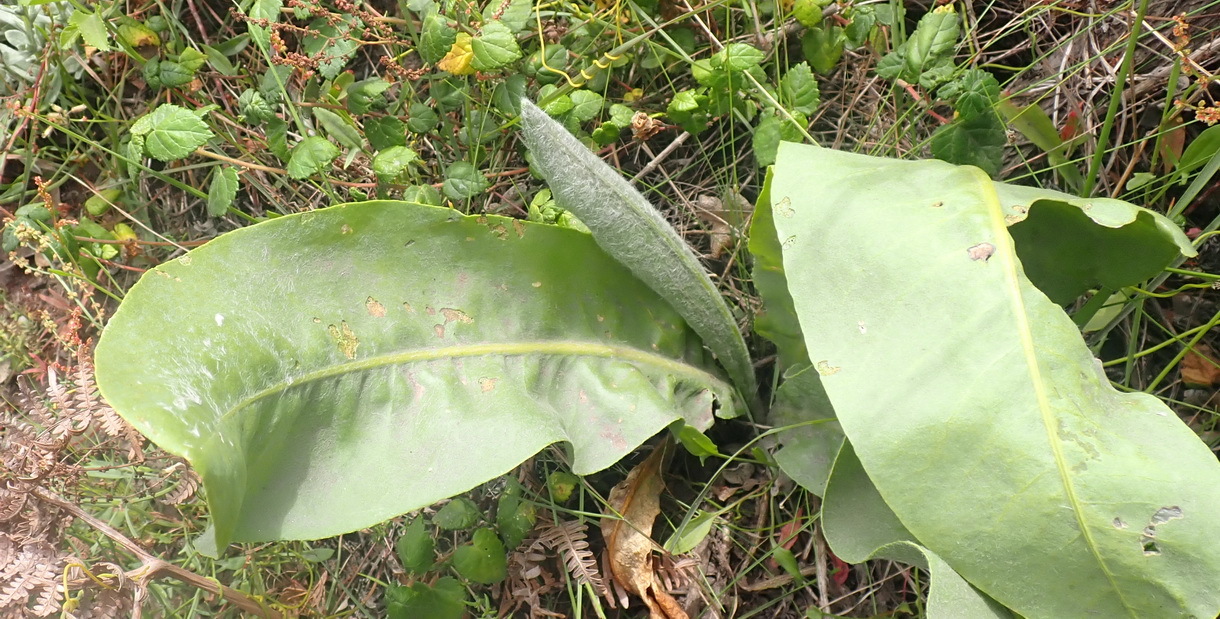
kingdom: Plantae
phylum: Tracheophyta
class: Magnoliopsida
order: Asterales
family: Asteraceae
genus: Senecio
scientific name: Senecio coronatus
